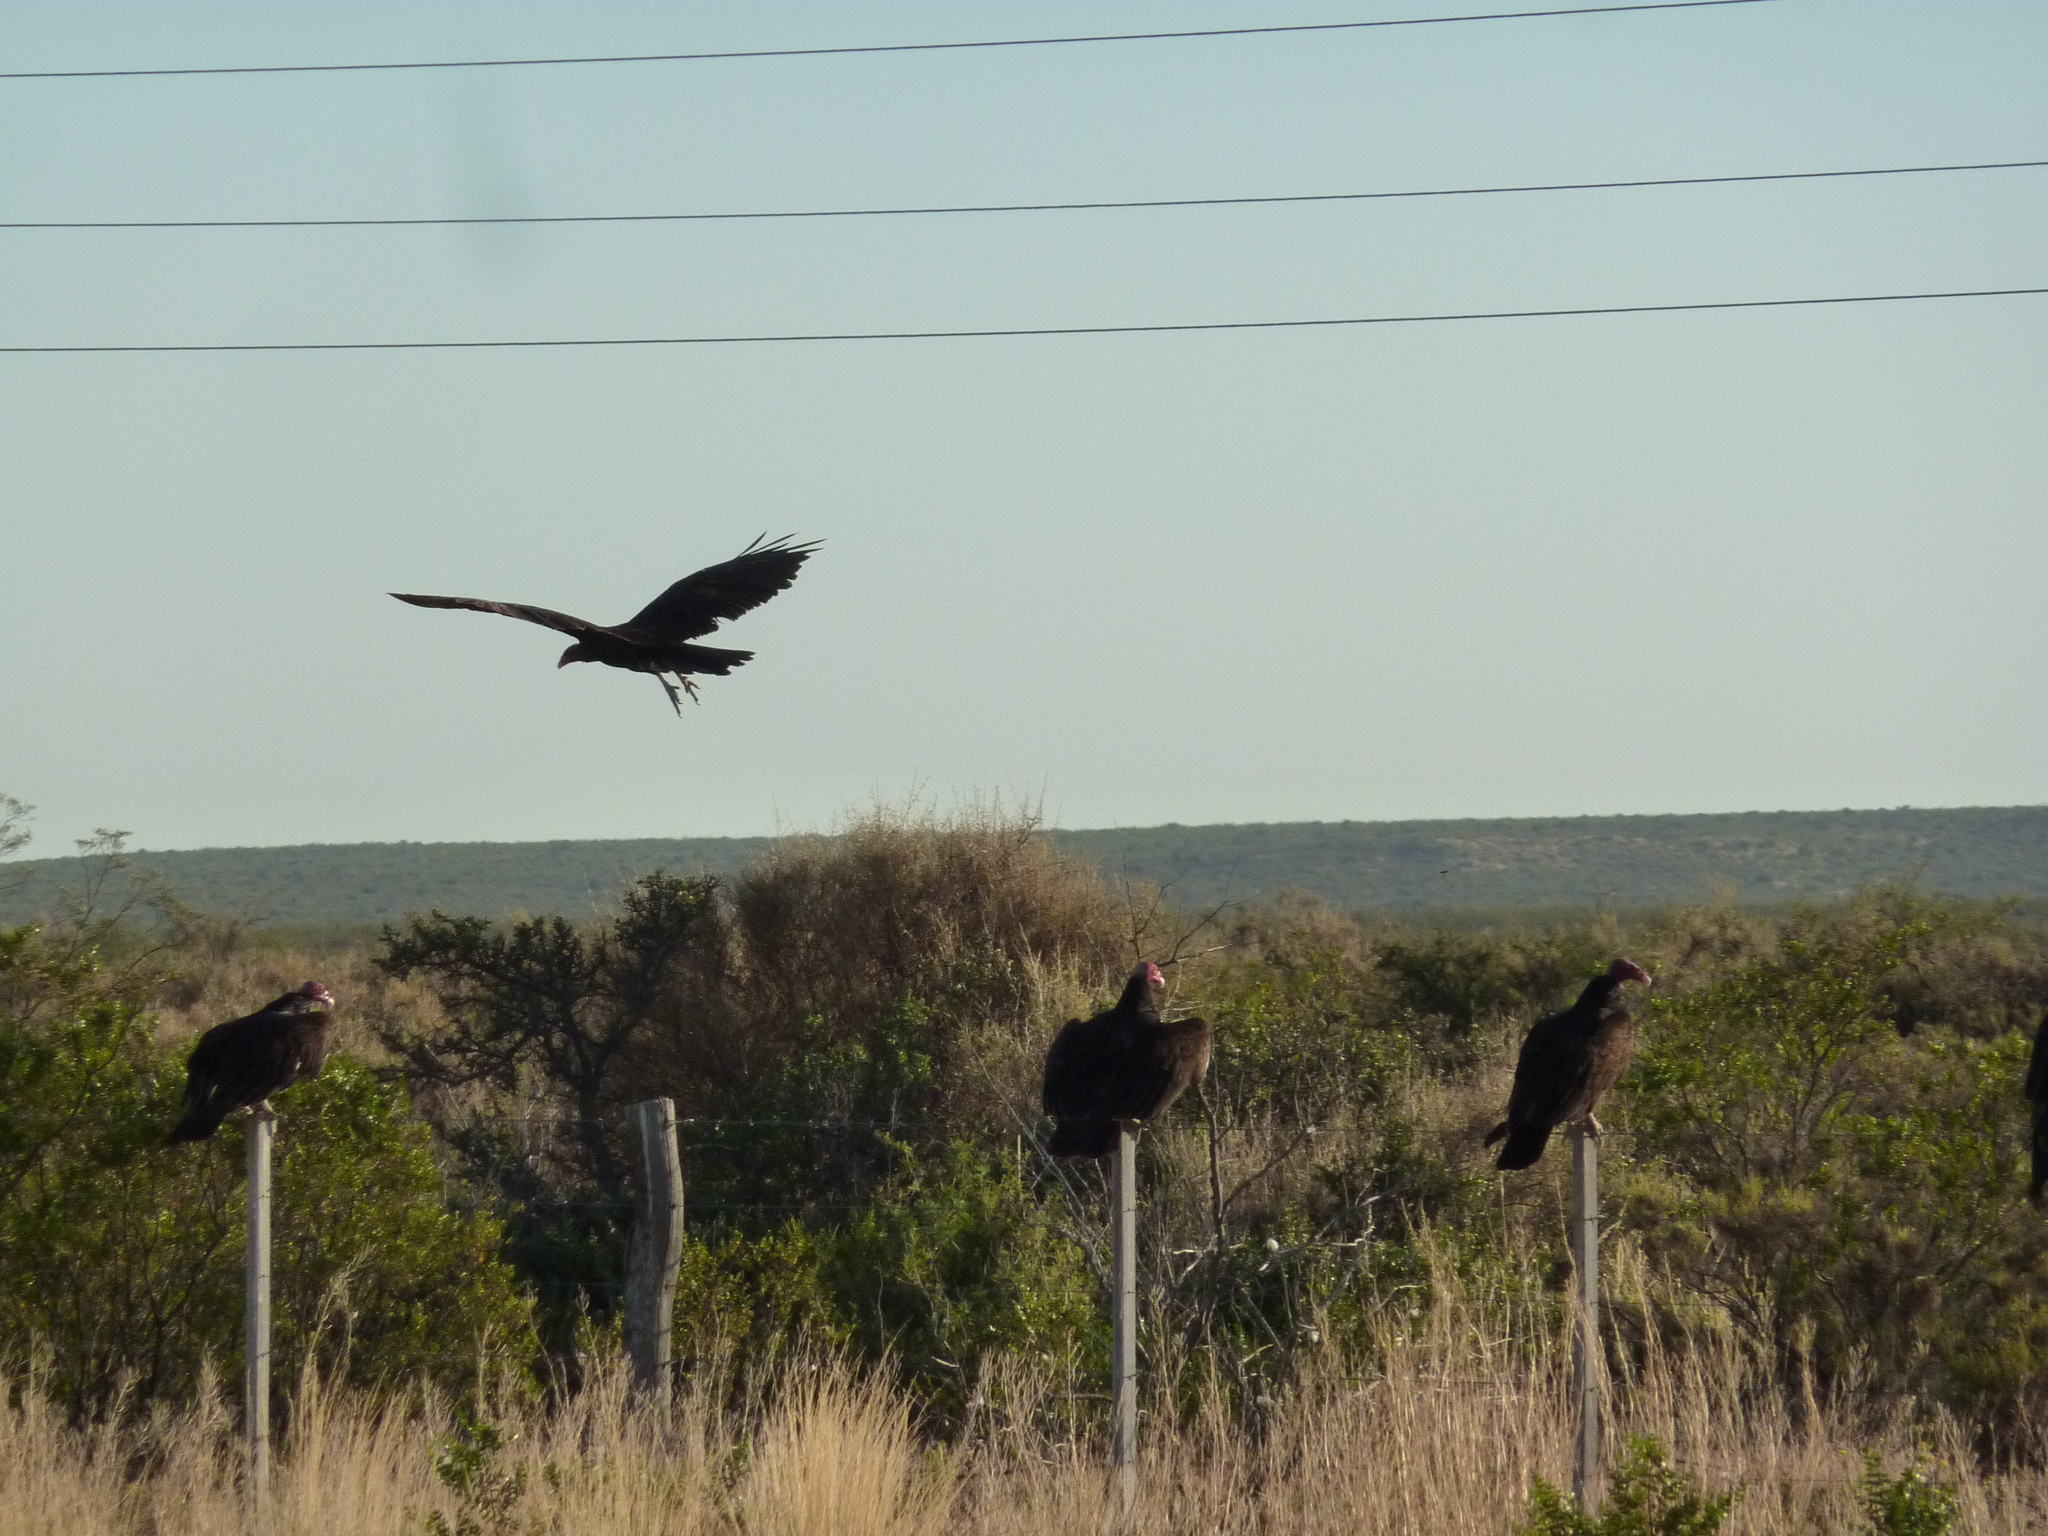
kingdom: Animalia
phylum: Chordata
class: Aves
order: Accipitriformes
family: Cathartidae
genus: Cathartes
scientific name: Cathartes aura
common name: Turkey vulture
